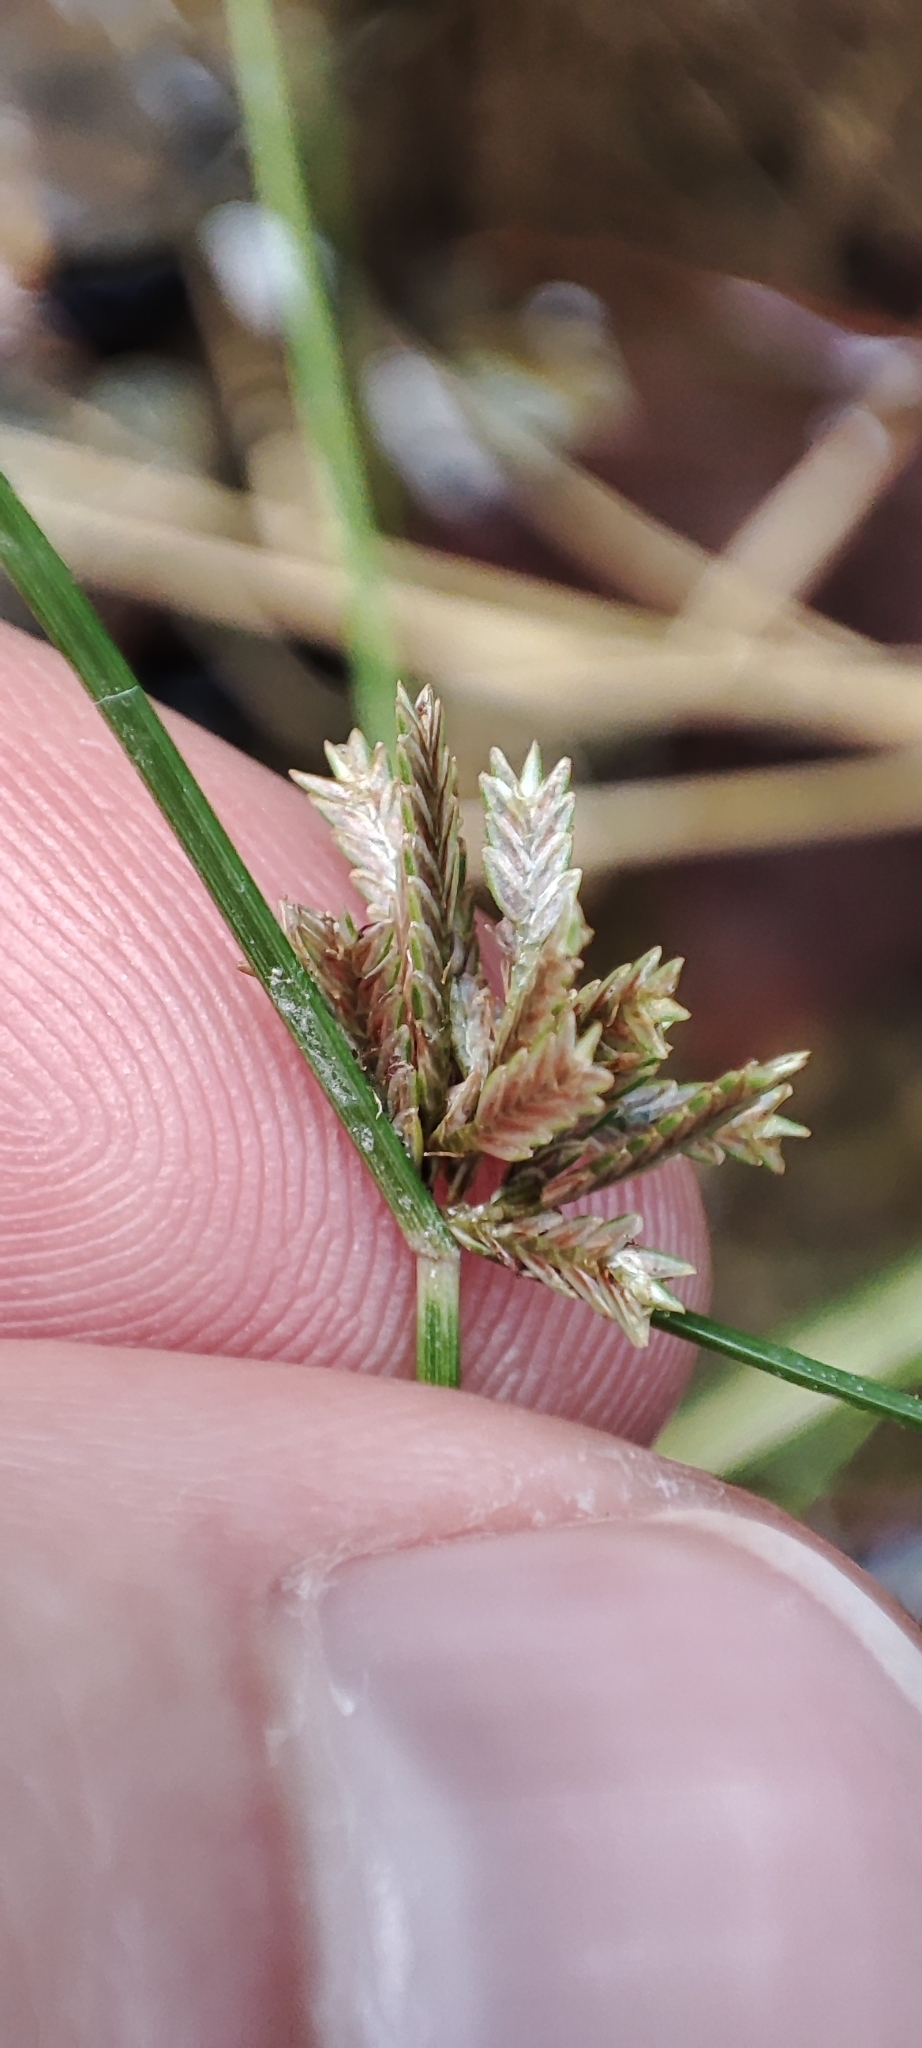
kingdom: Plantae
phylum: Tracheophyta
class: Liliopsida
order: Poales
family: Cyperaceae
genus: Cyperus
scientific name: Cyperus flavidus
